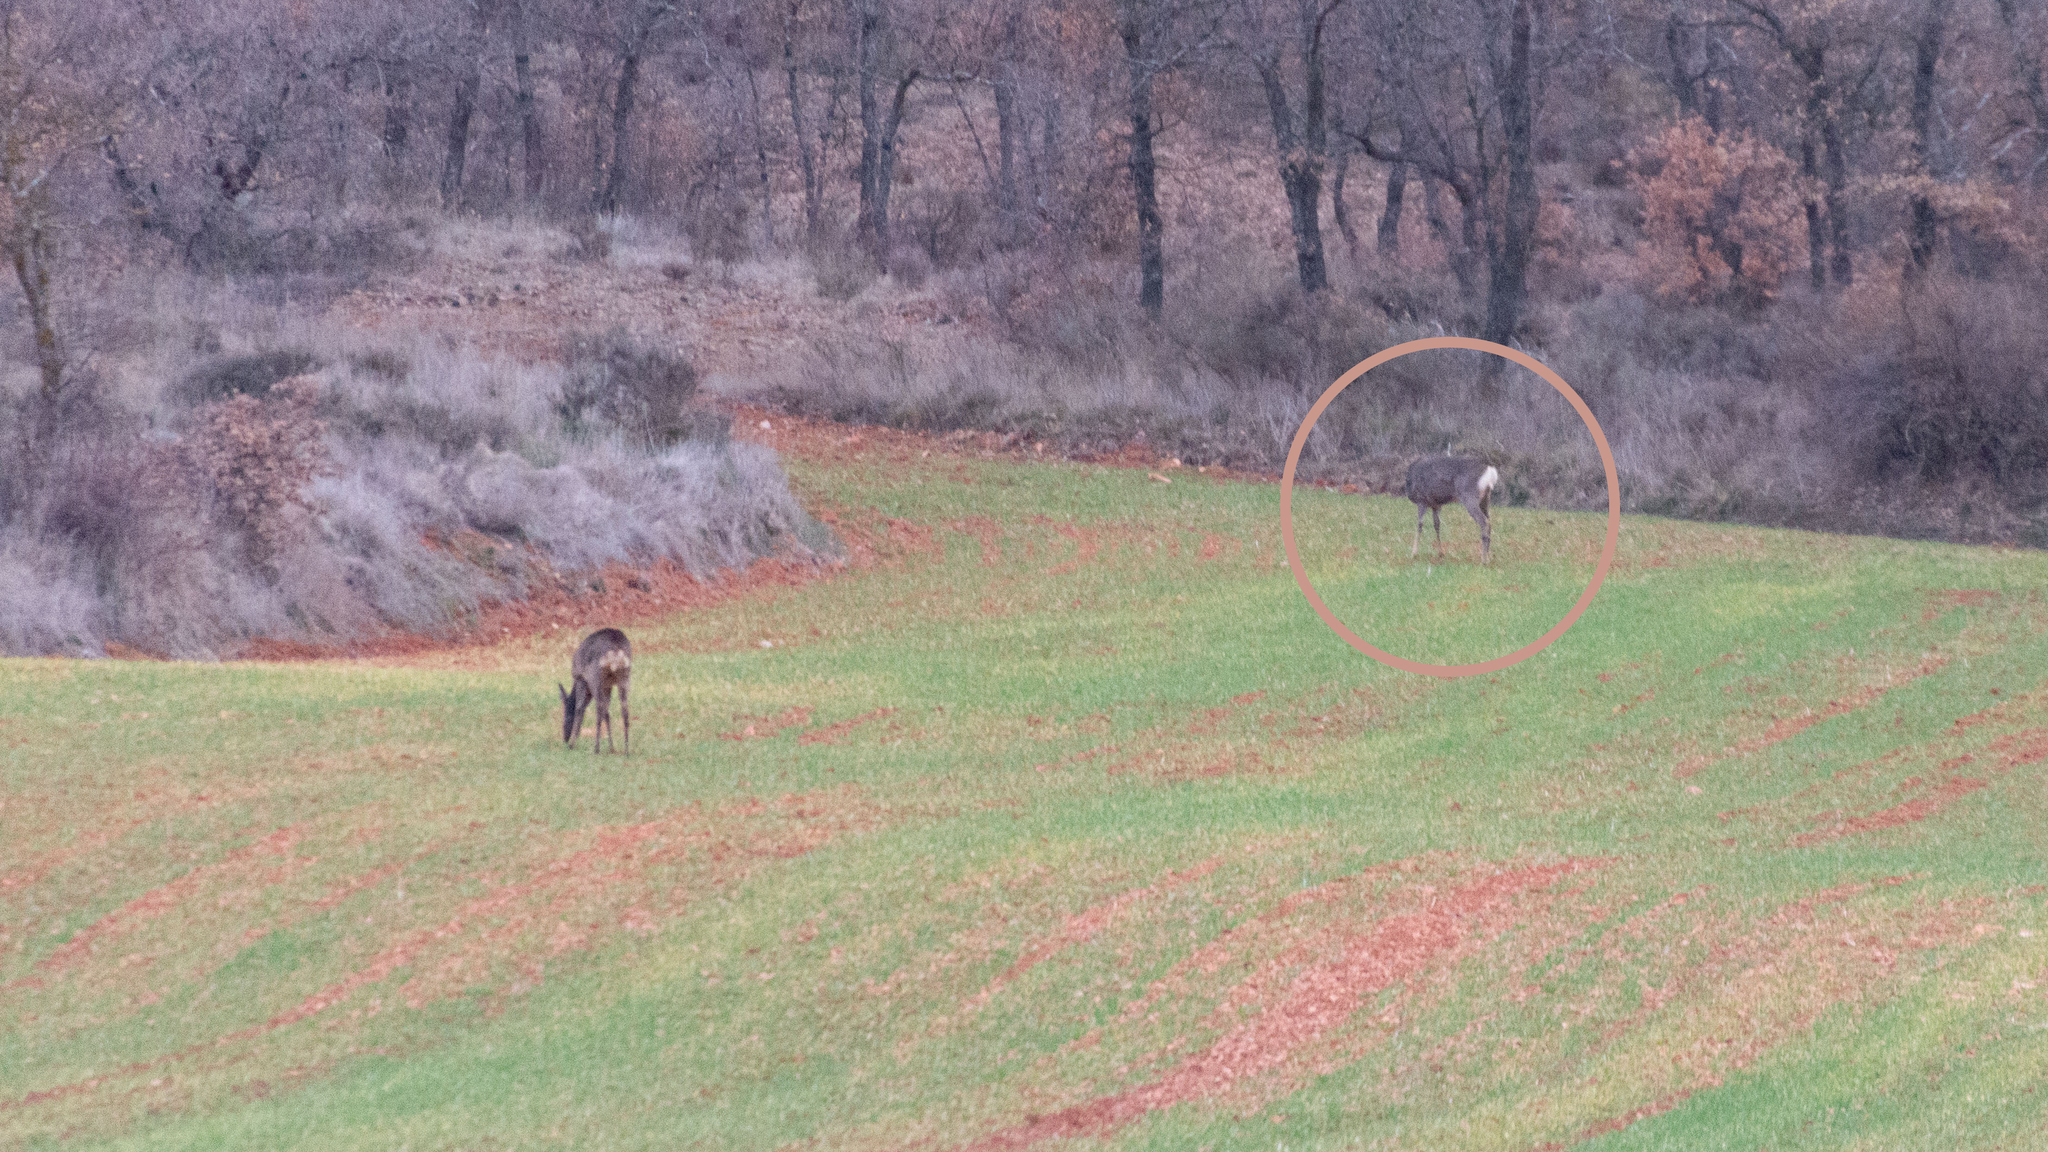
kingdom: Animalia
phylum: Chordata
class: Mammalia
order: Artiodactyla
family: Cervidae
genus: Capreolus
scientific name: Capreolus capreolus
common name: Western roe deer
